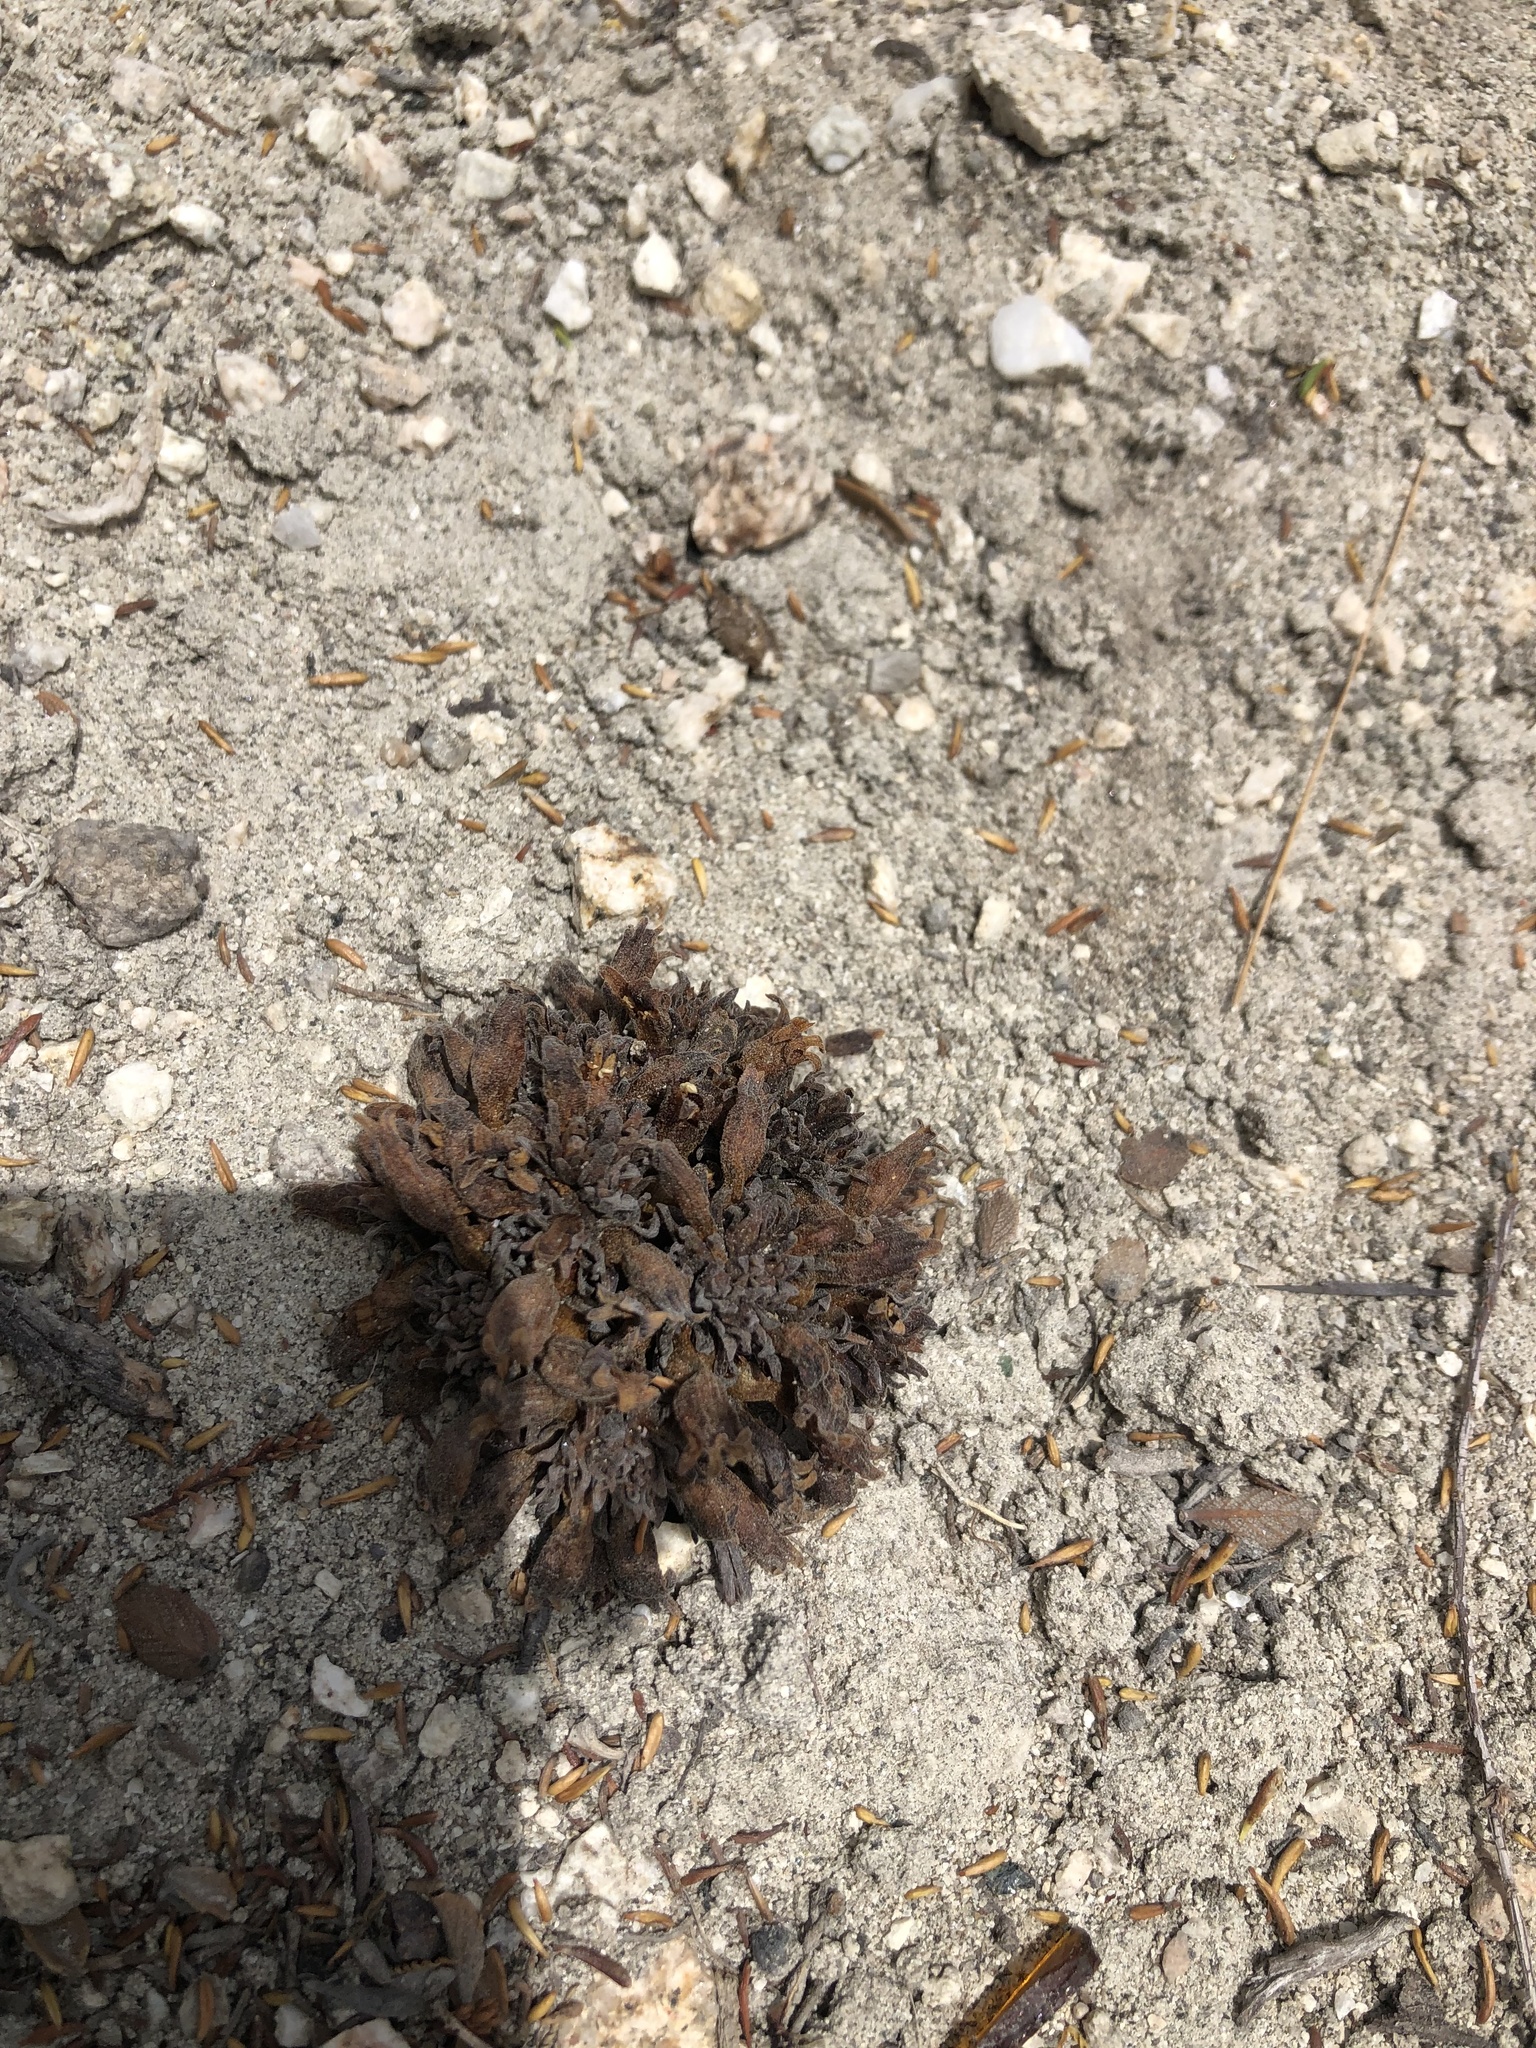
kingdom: Plantae
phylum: Tracheophyta
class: Magnoliopsida
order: Lamiales
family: Orobanchaceae
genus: Aphyllon
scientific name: Aphyllon tuberosum
